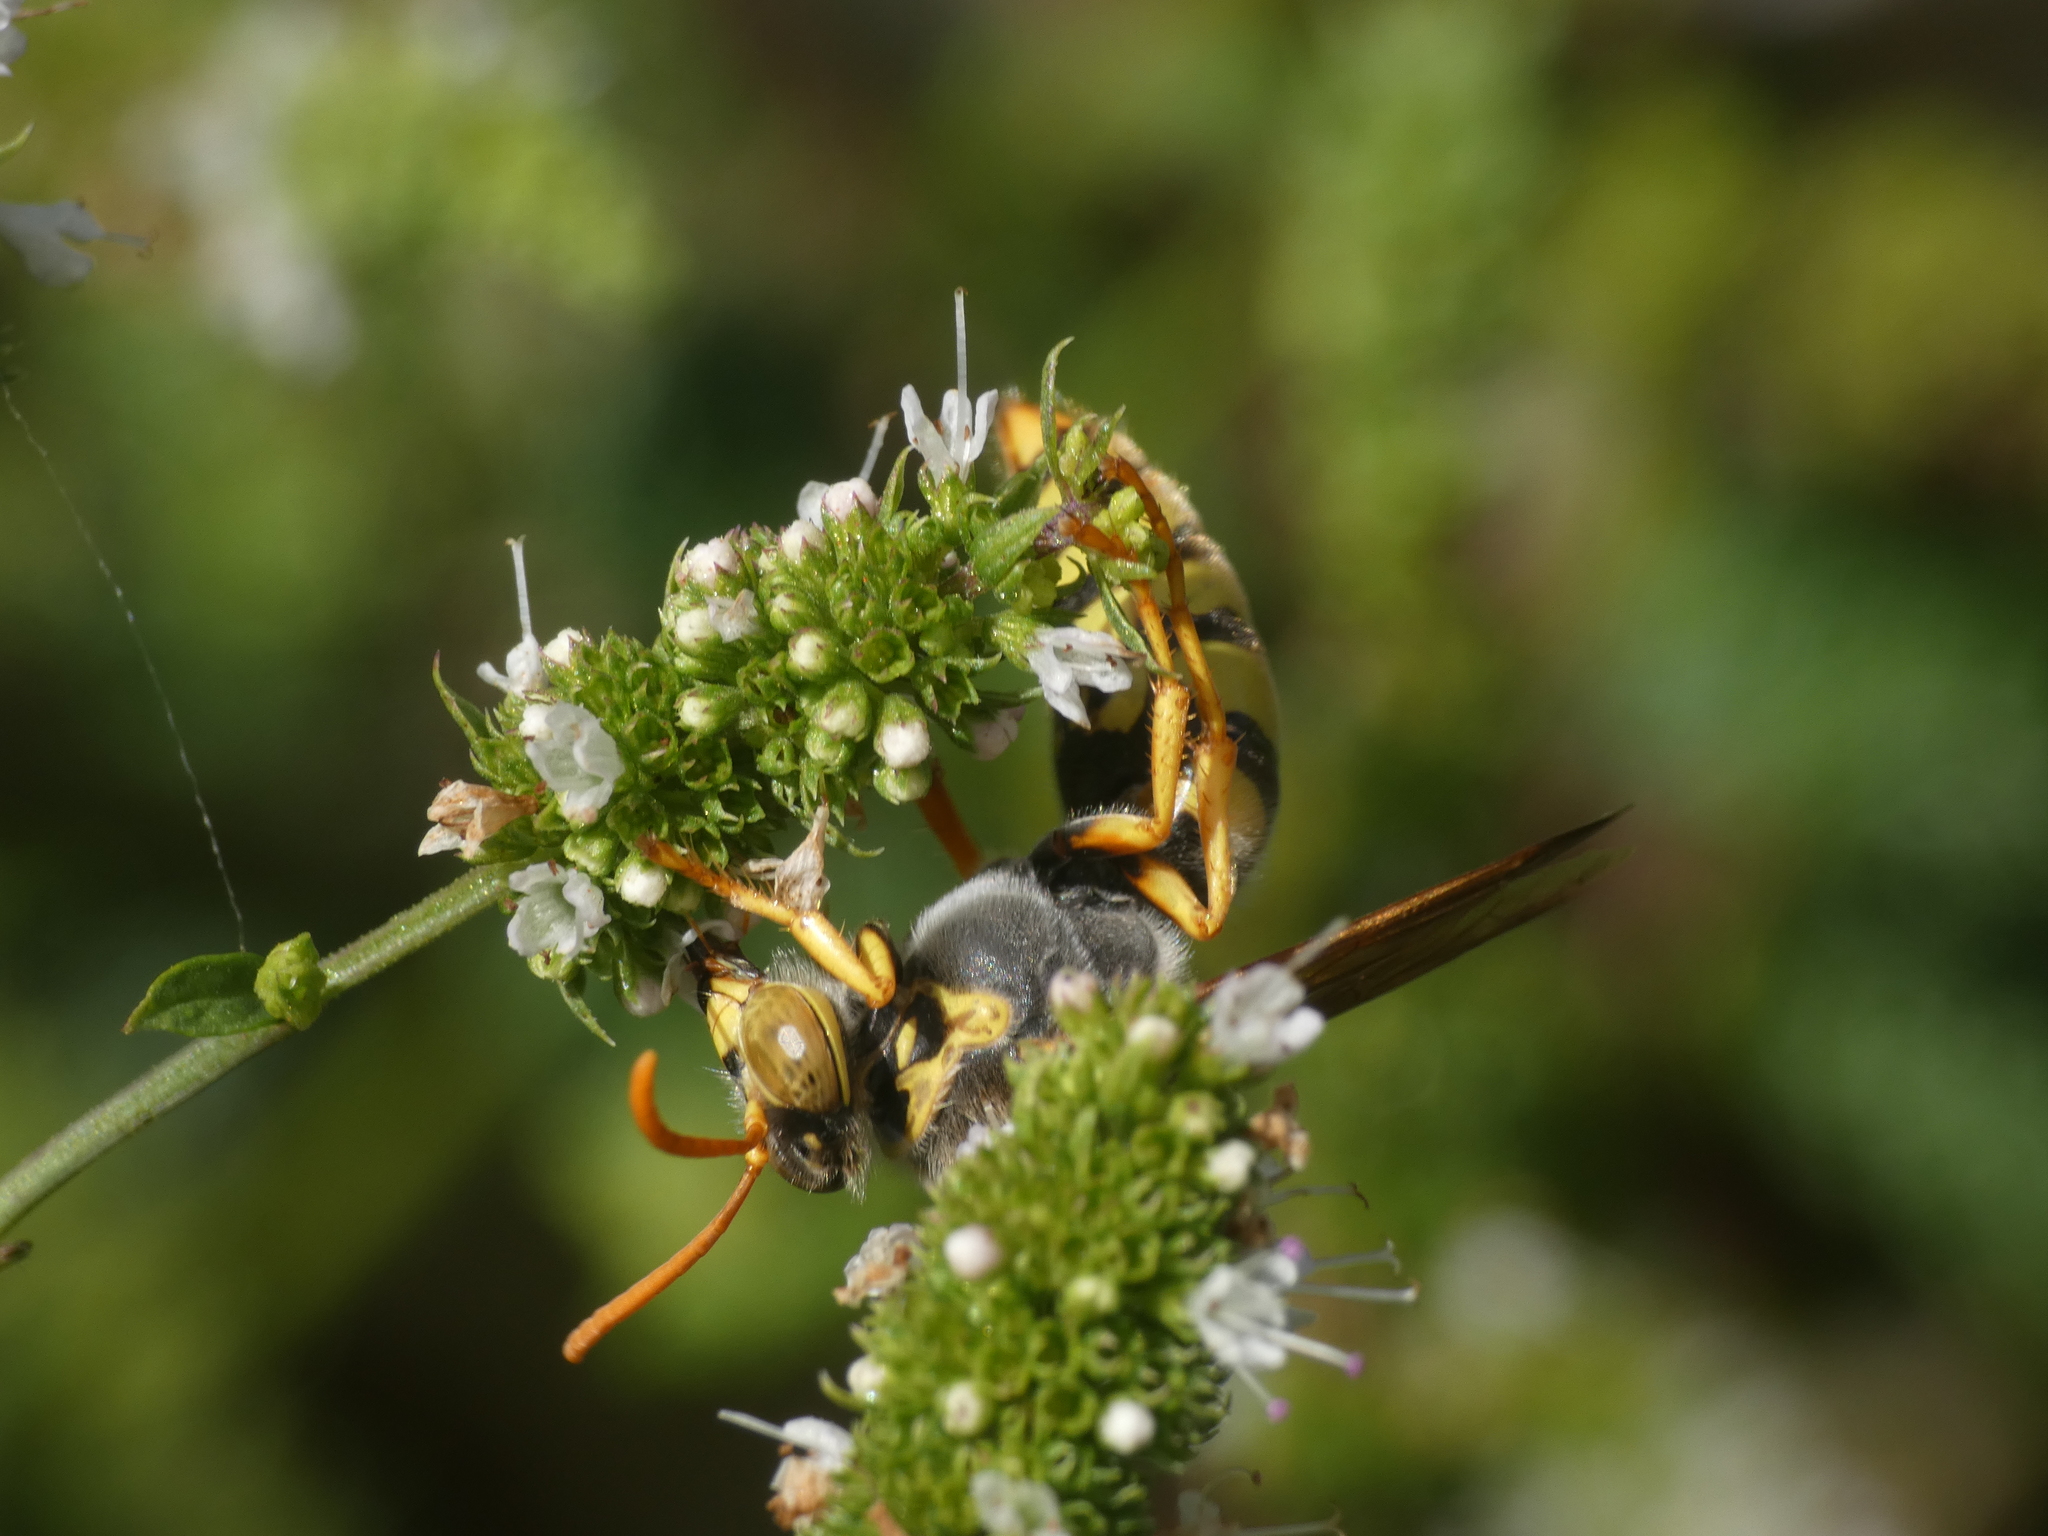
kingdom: Animalia
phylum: Arthropoda
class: Insecta
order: Hymenoptera
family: Crabronidae
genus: Stizus
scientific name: Stizus ruficornis
